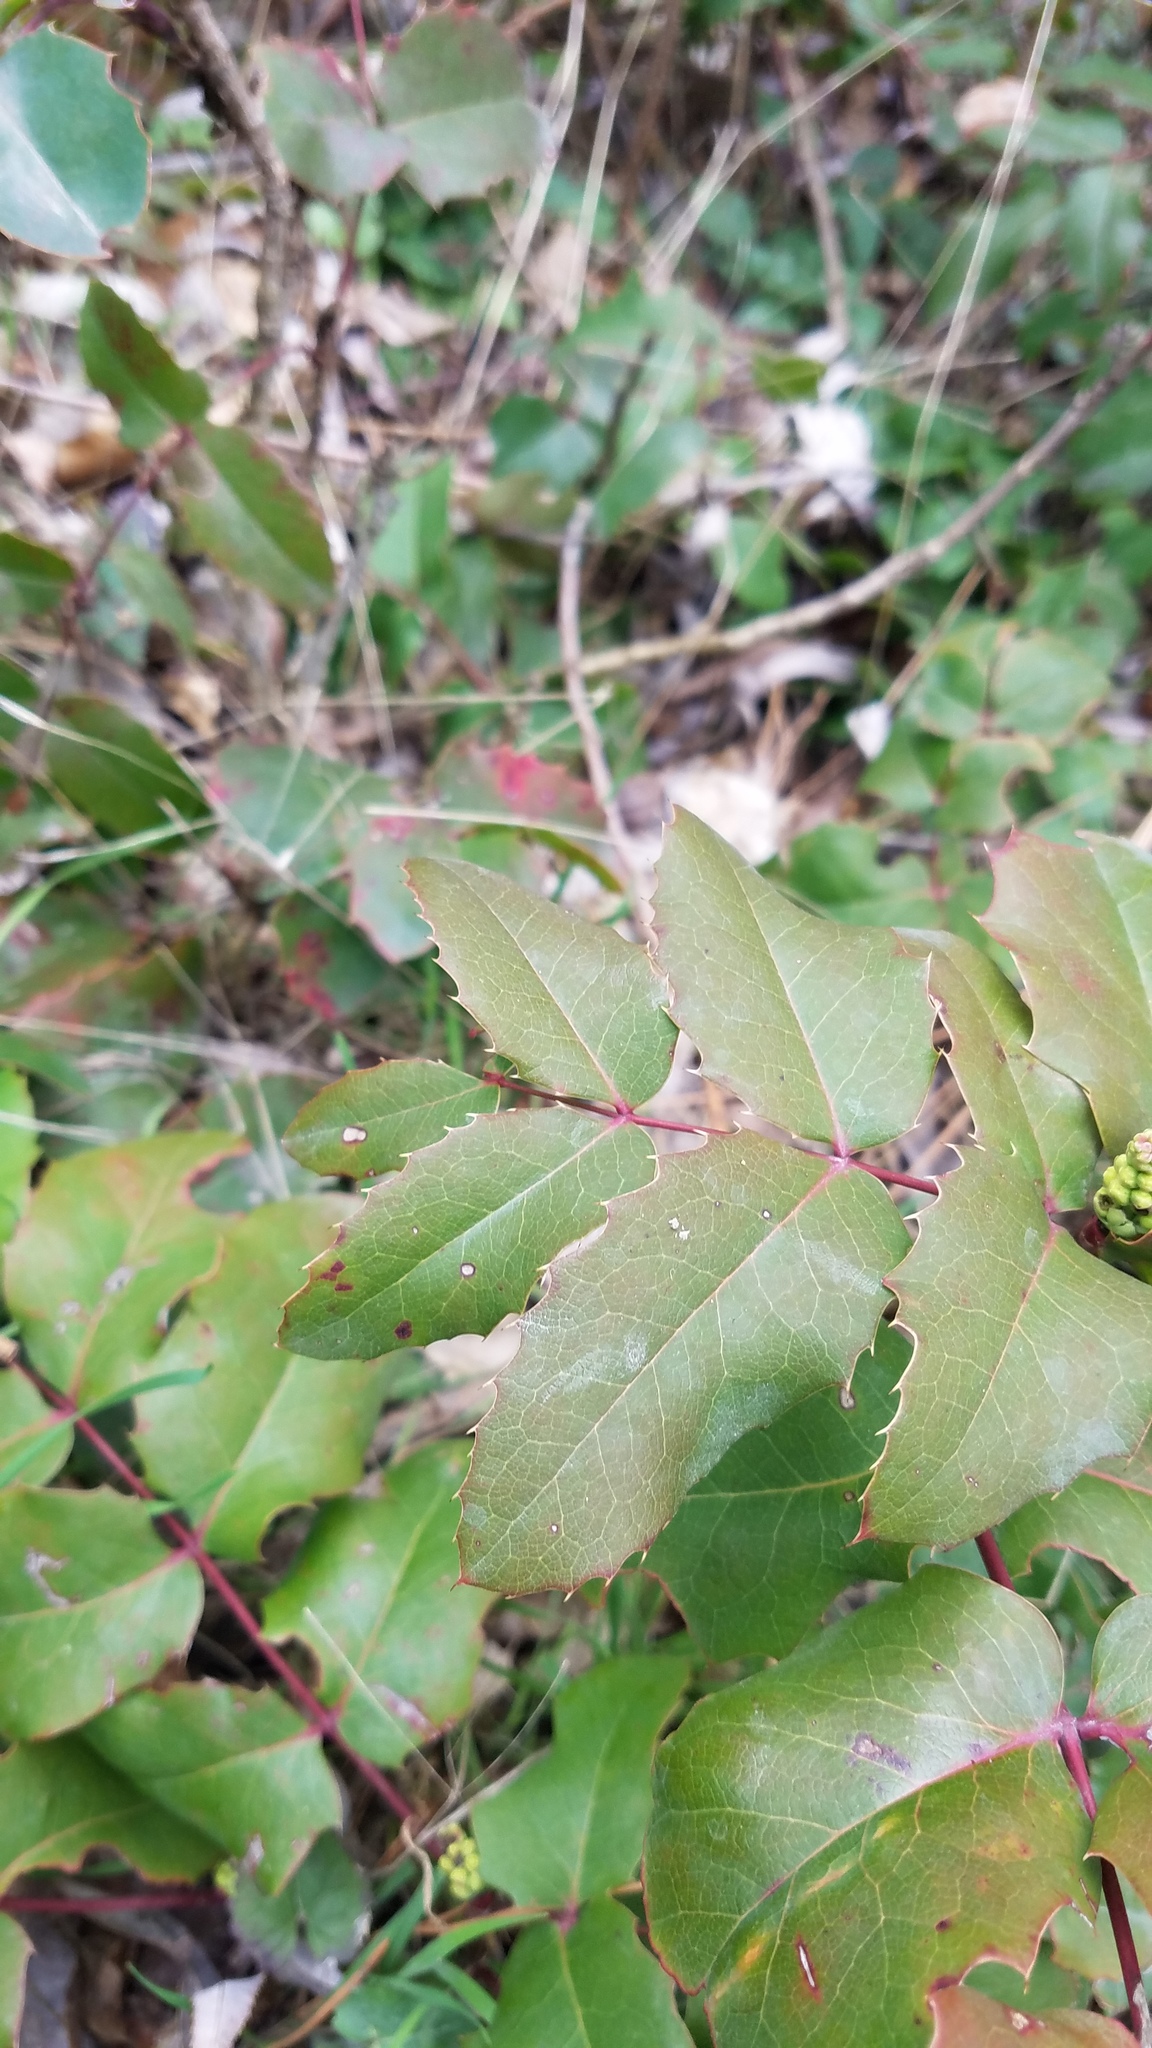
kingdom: Plantae
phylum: Tracheophyta
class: Magnoliopsida
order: Ranunculales
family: Berberidaceae
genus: Mahonia
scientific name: Mahonia aquifolium
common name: Oregon-grape
